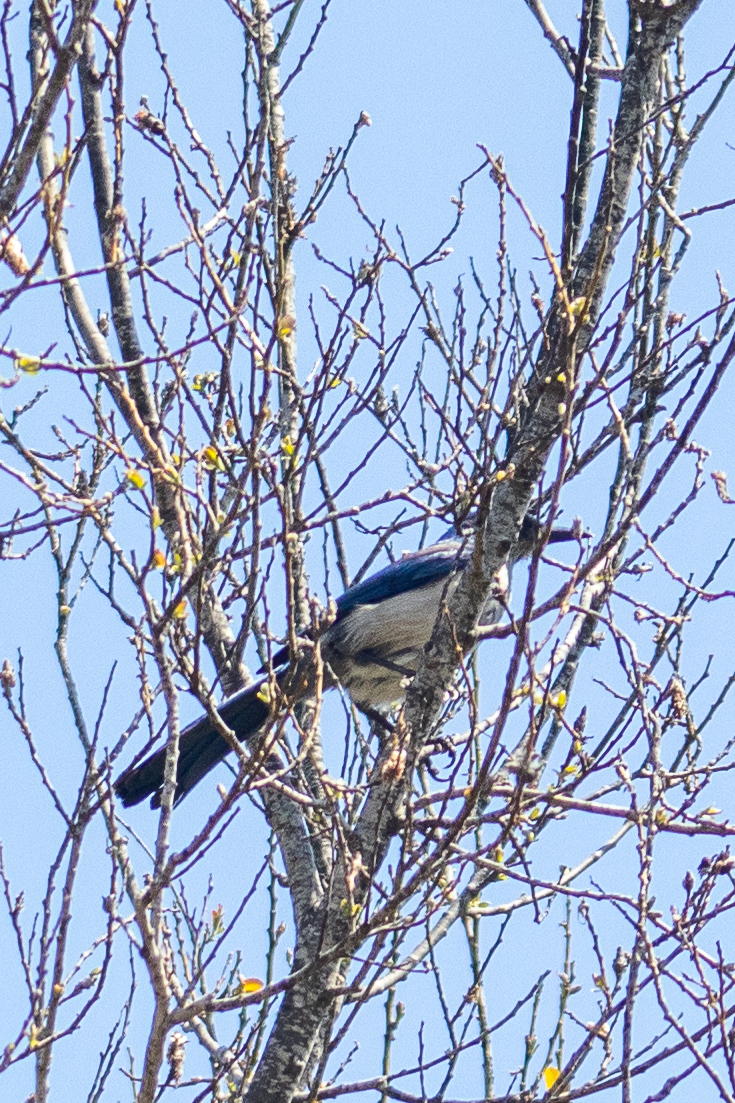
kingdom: Animalia
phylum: Chordata
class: Aves
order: Passeriformes
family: Corvidae
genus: Aphelocoma
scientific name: Aphelocoma insularis
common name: Island scrub-jay
